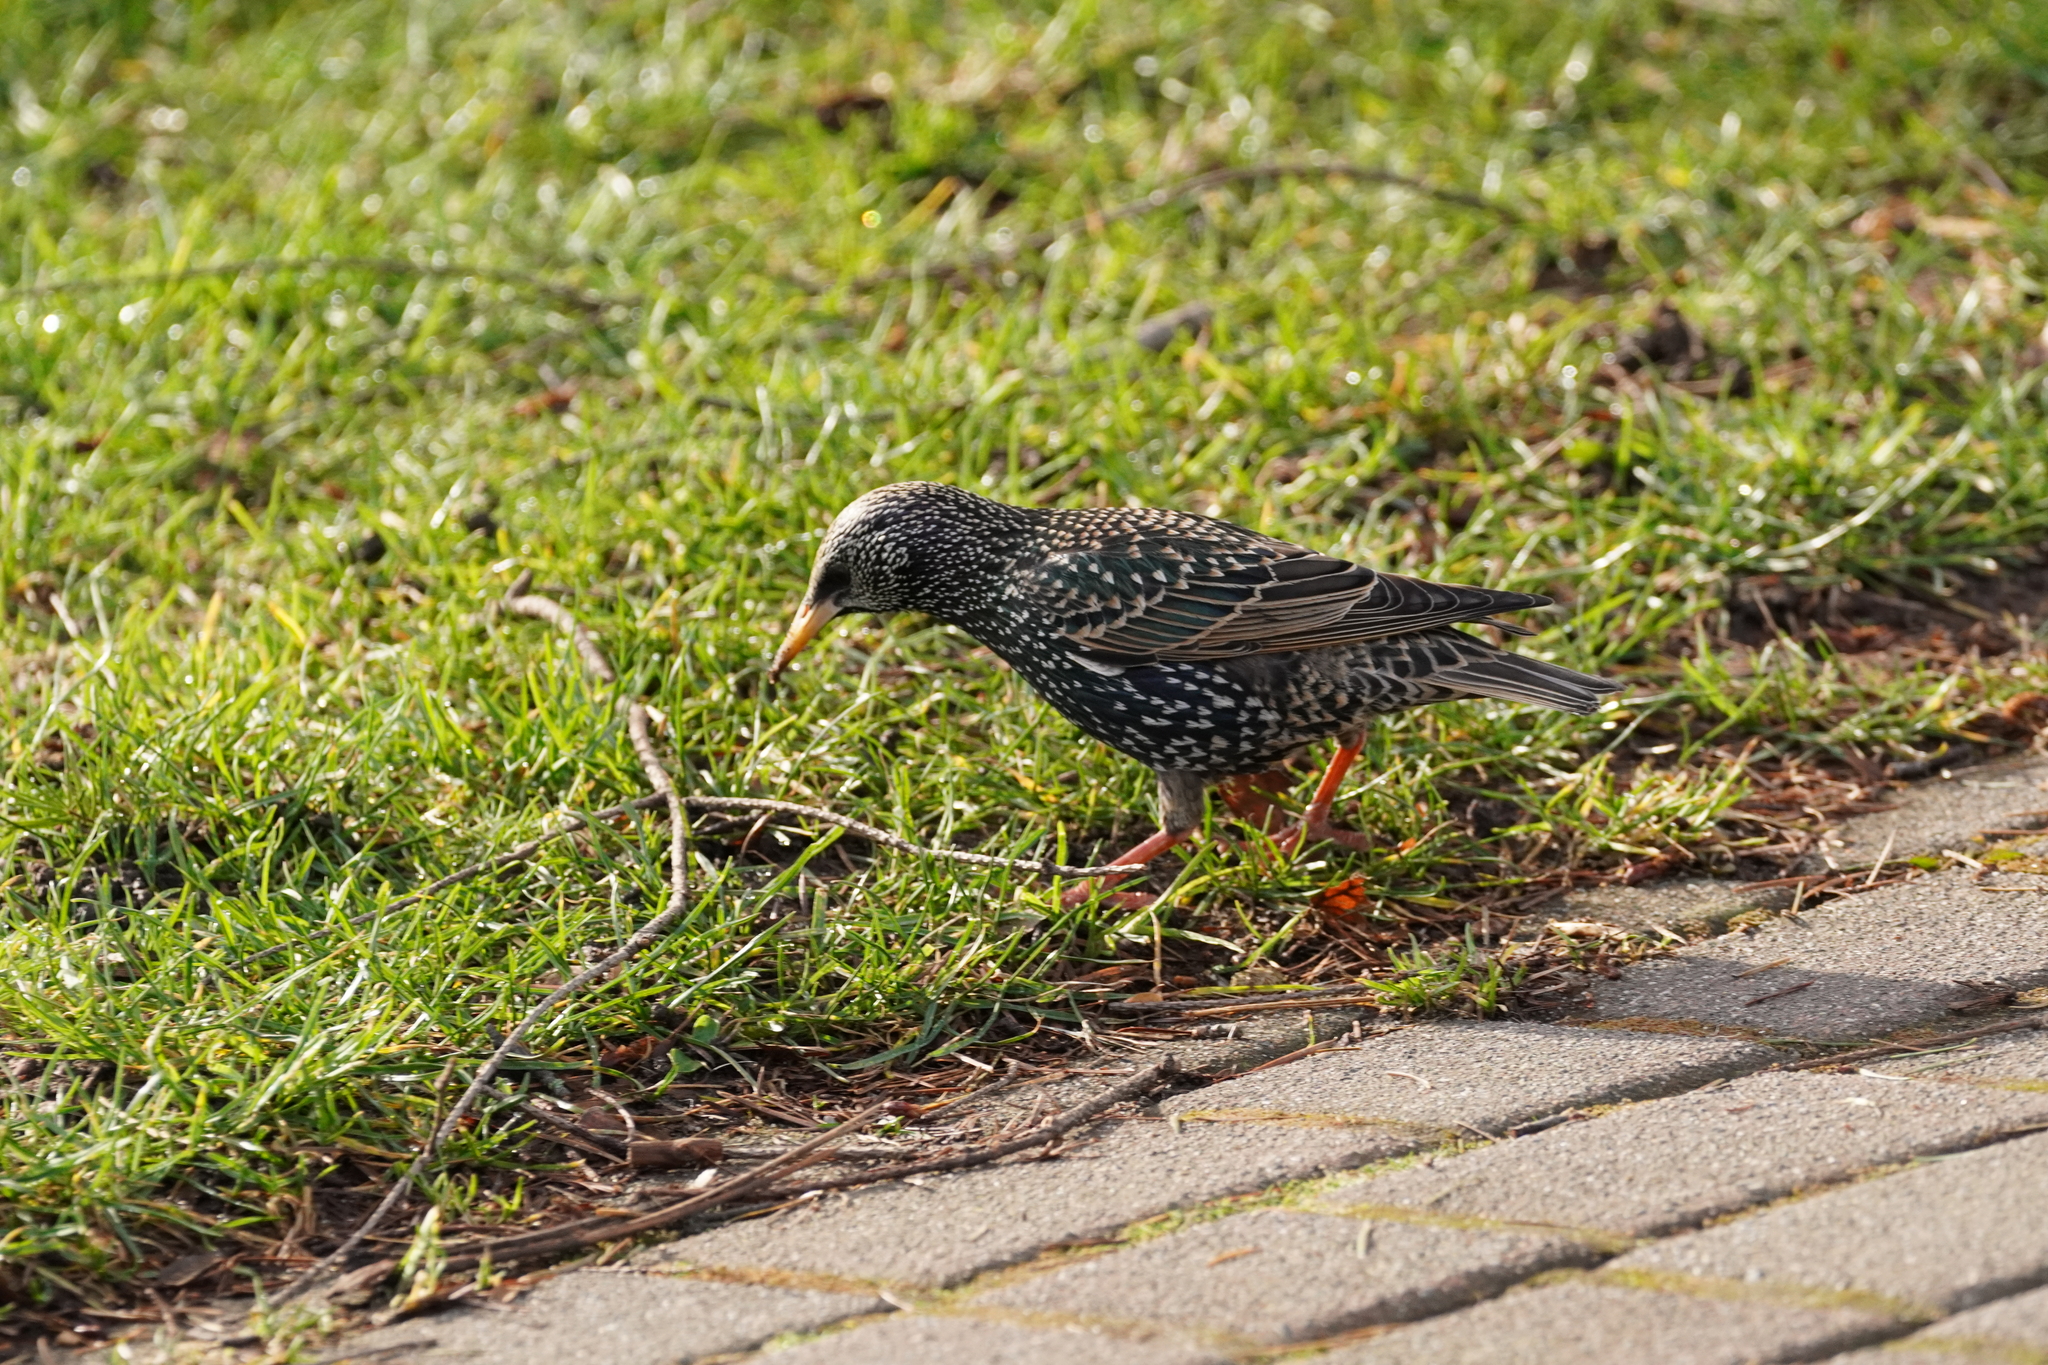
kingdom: Animalia
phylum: Chordata
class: Aves
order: Passeriformes
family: Sturnidae
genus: Sturnus
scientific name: Sturnus vulgaris
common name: Common starling
